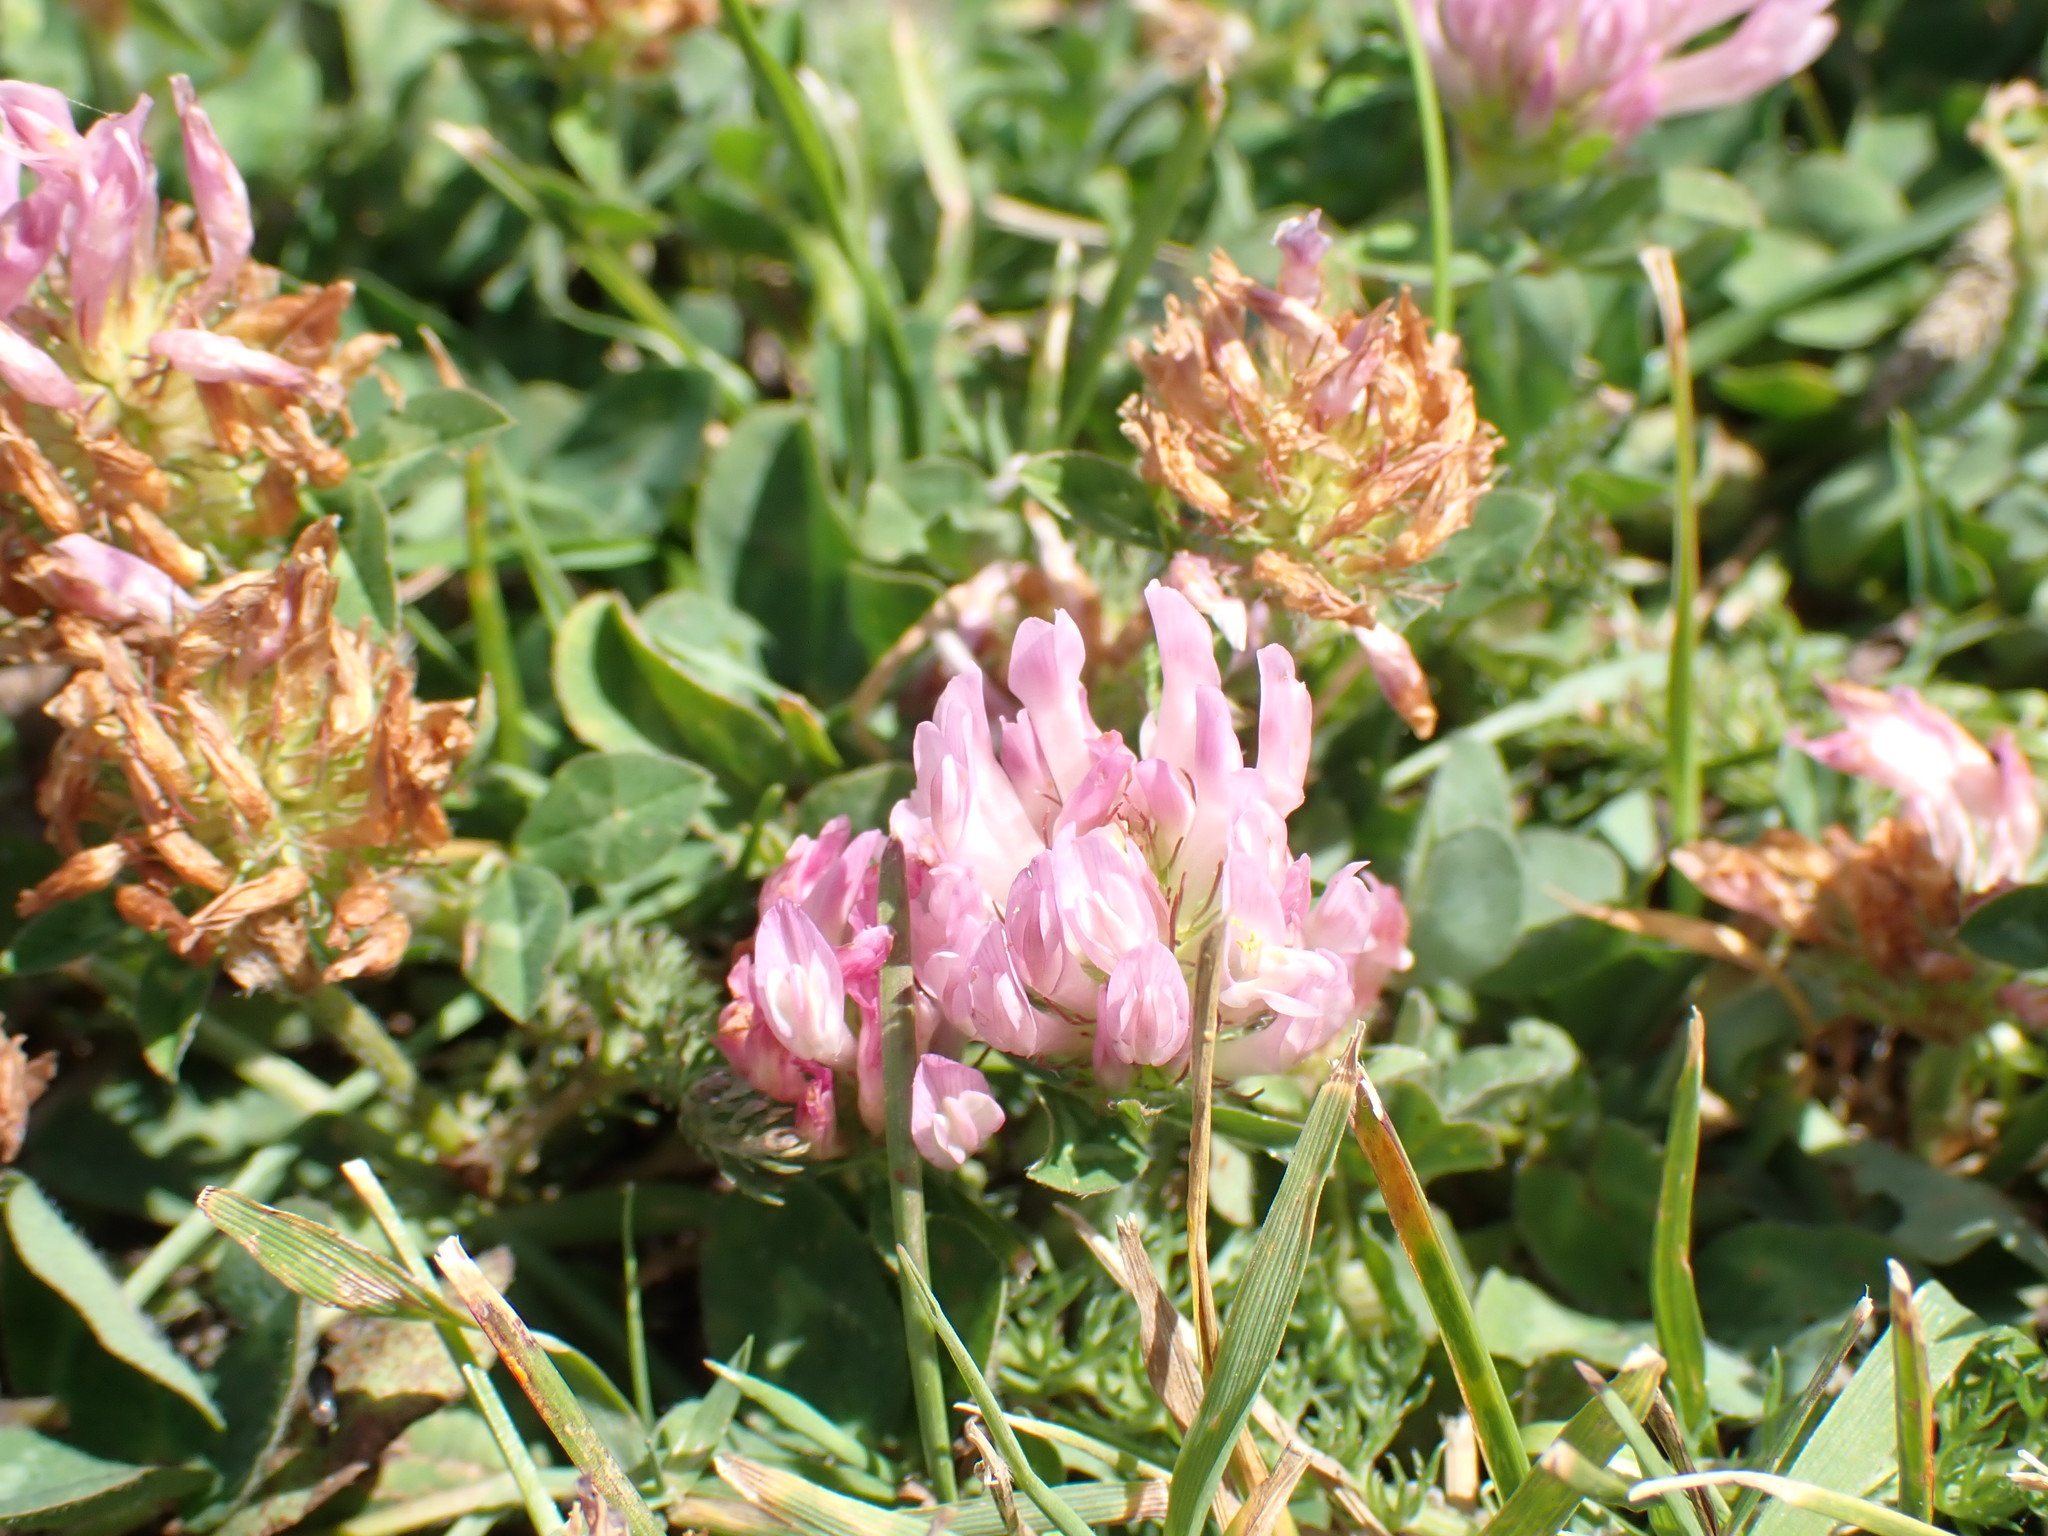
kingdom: Plantae
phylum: Tracheophyta
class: Magnoliopsida
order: Fabales
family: Fabaceae
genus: Trifolium
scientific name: Trifolium pratense
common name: Red clover
